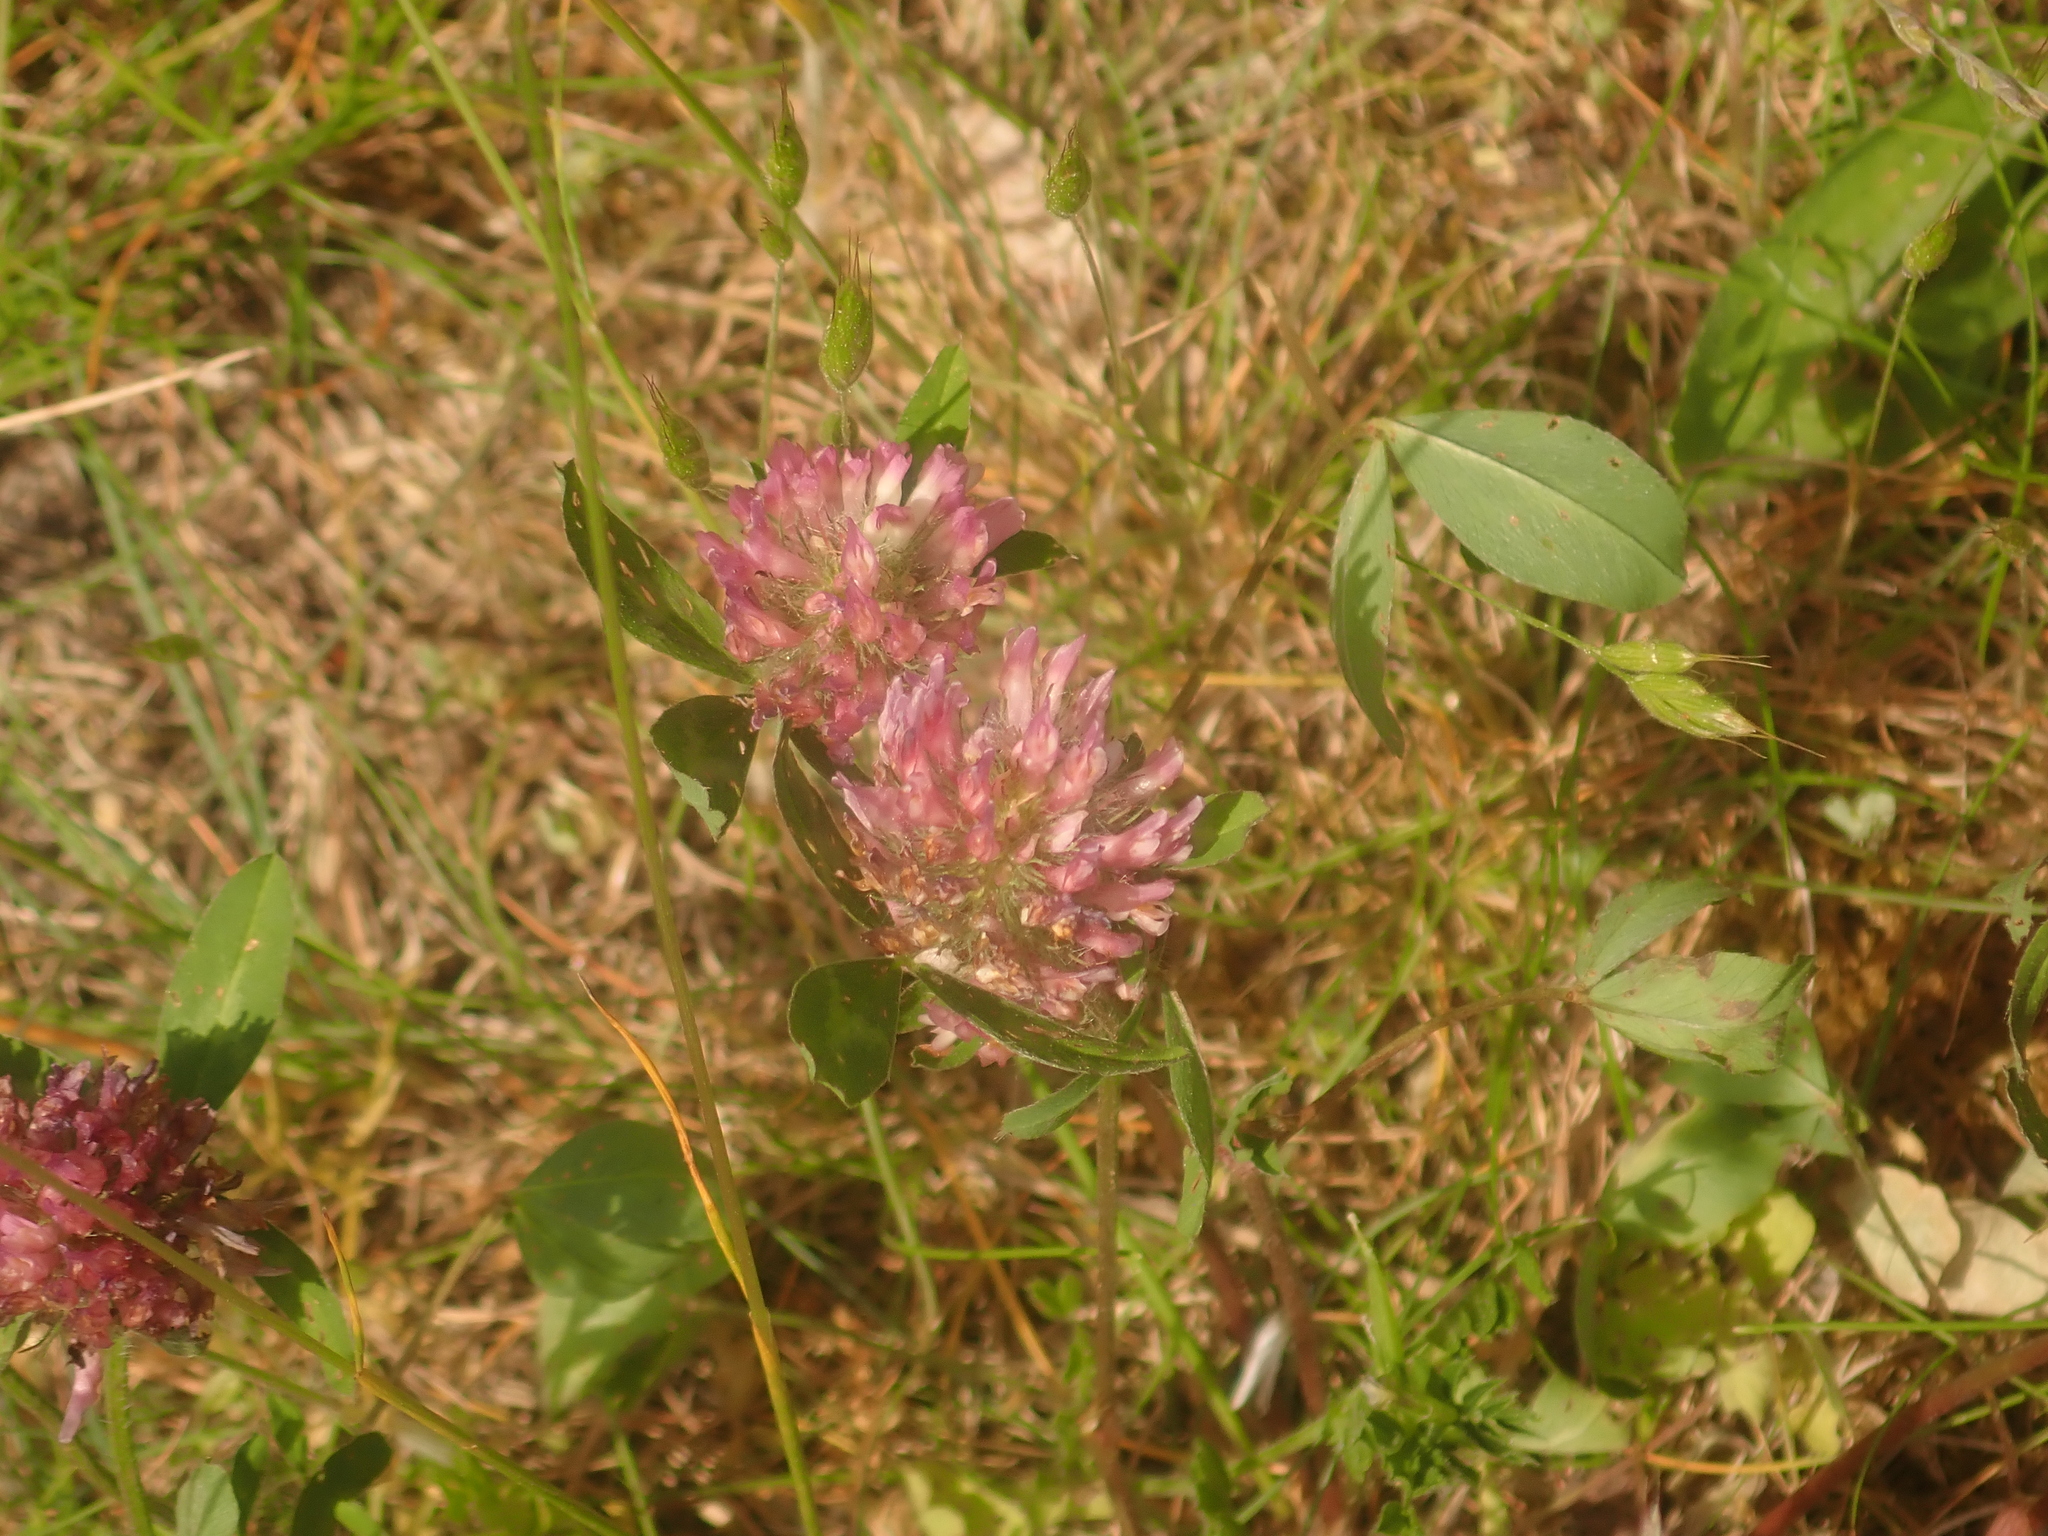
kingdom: Plantae
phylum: Tracheophyta
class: Magnoliopsida
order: Fabales
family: Fabaceae
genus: Trifolium
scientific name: Trifolium pratense
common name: Red clover
